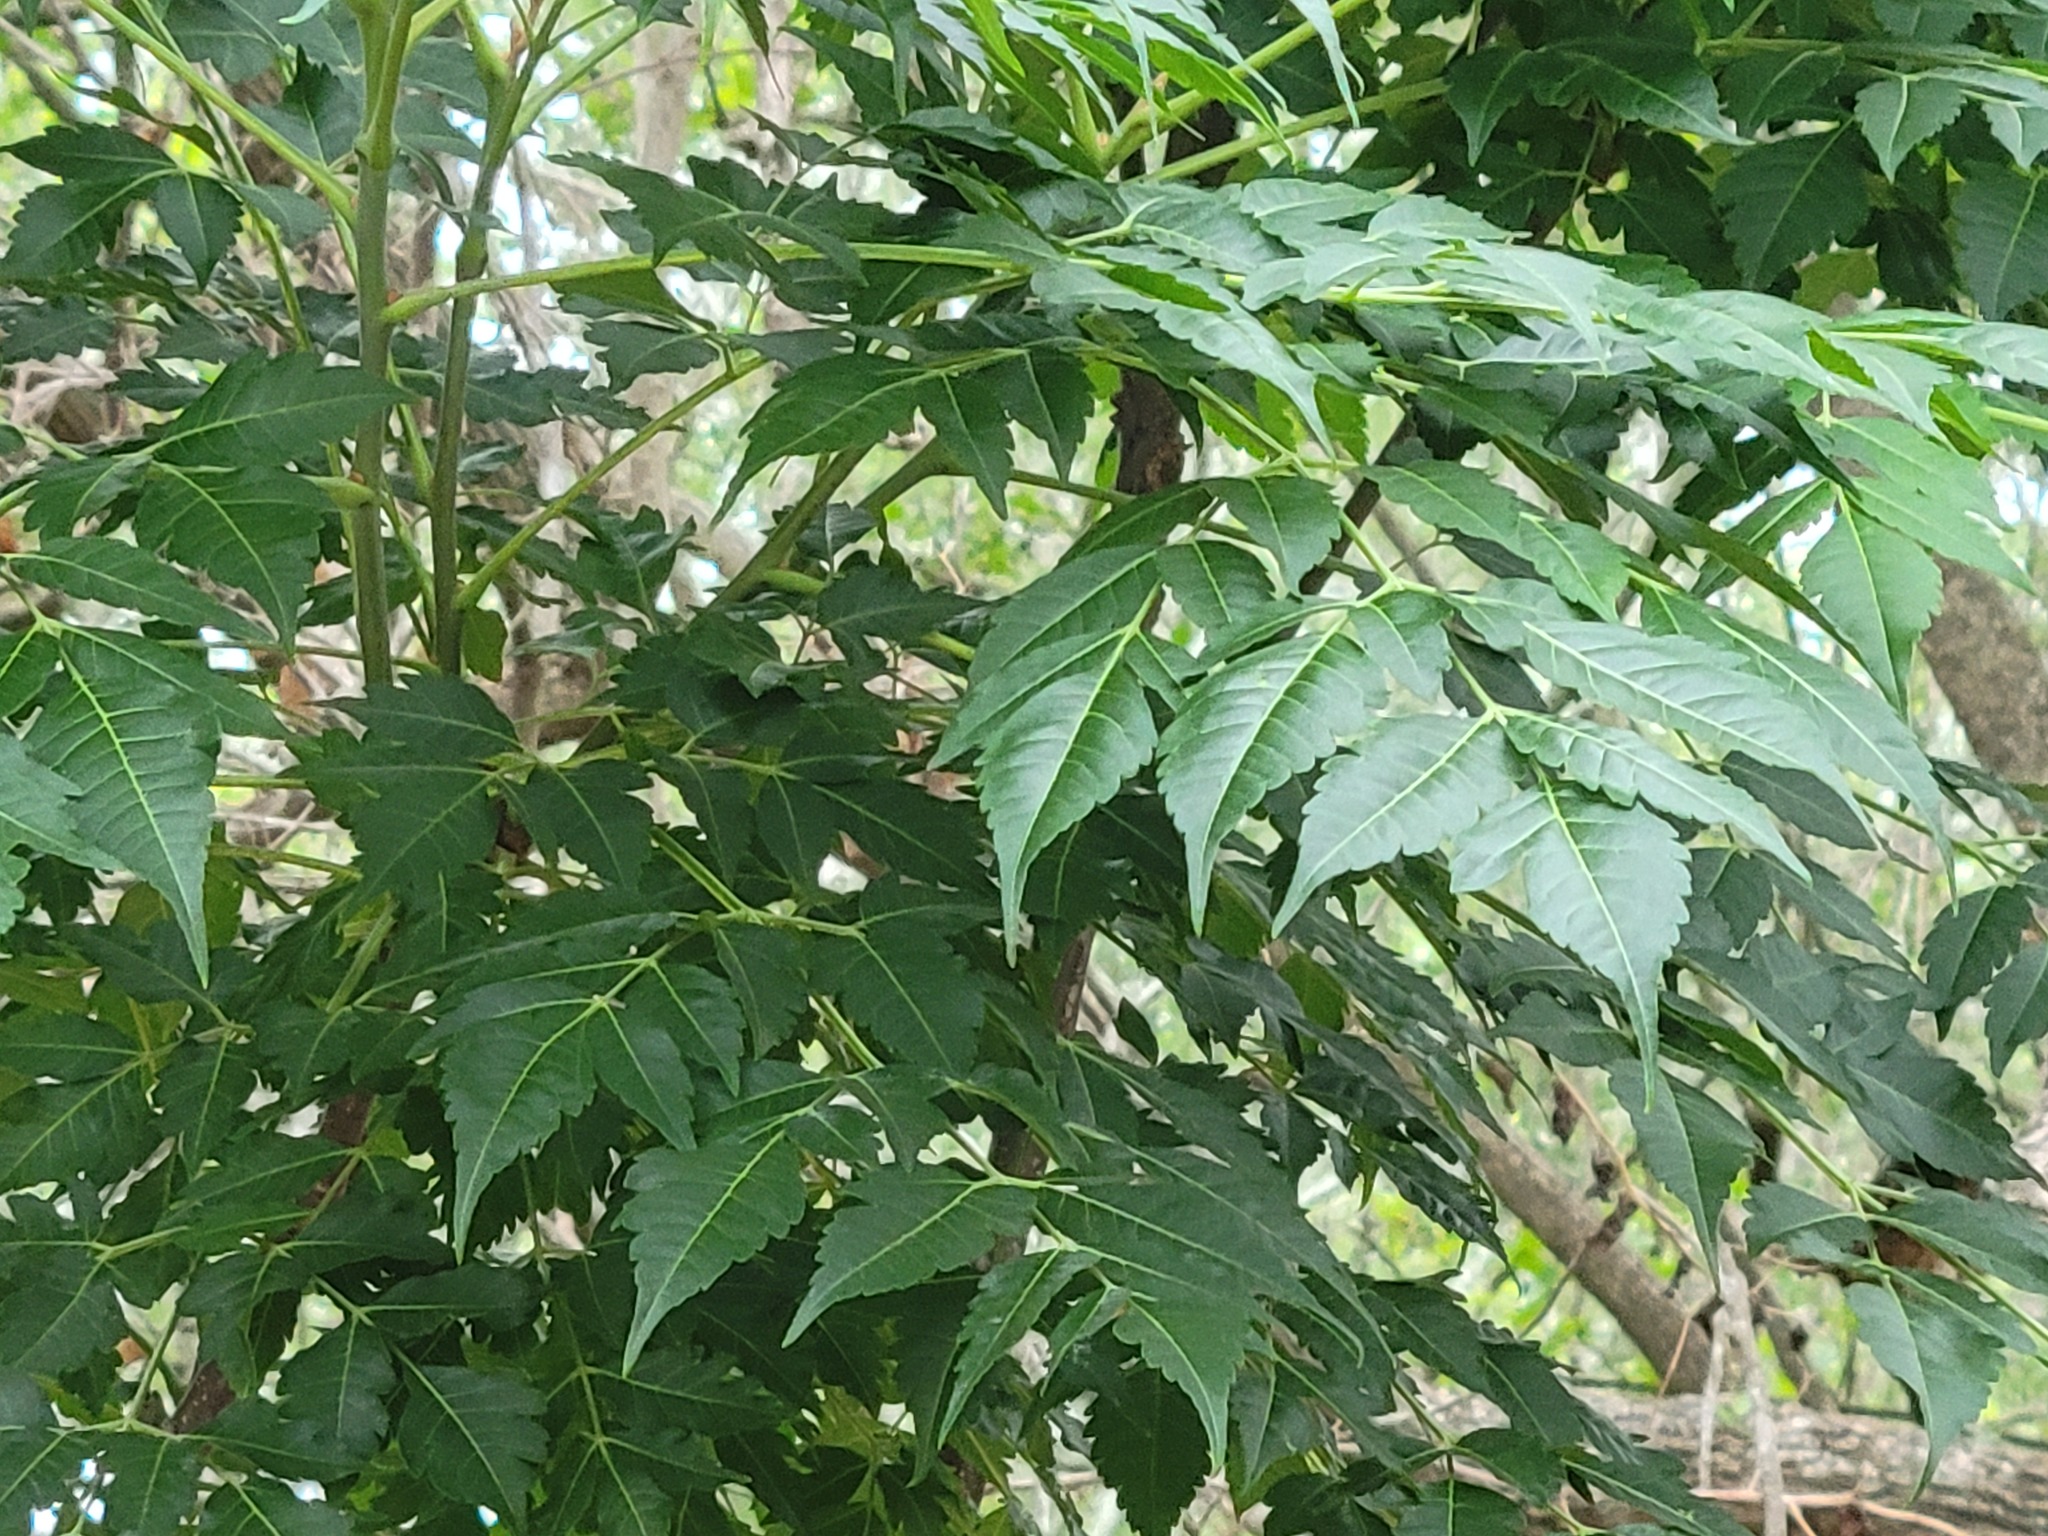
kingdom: Plantae
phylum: Tracheophyta
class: Magnoliopsida
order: Sapindales
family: Meliaceae
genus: Melia
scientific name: Melia azedarach
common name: Chinaberrytree
